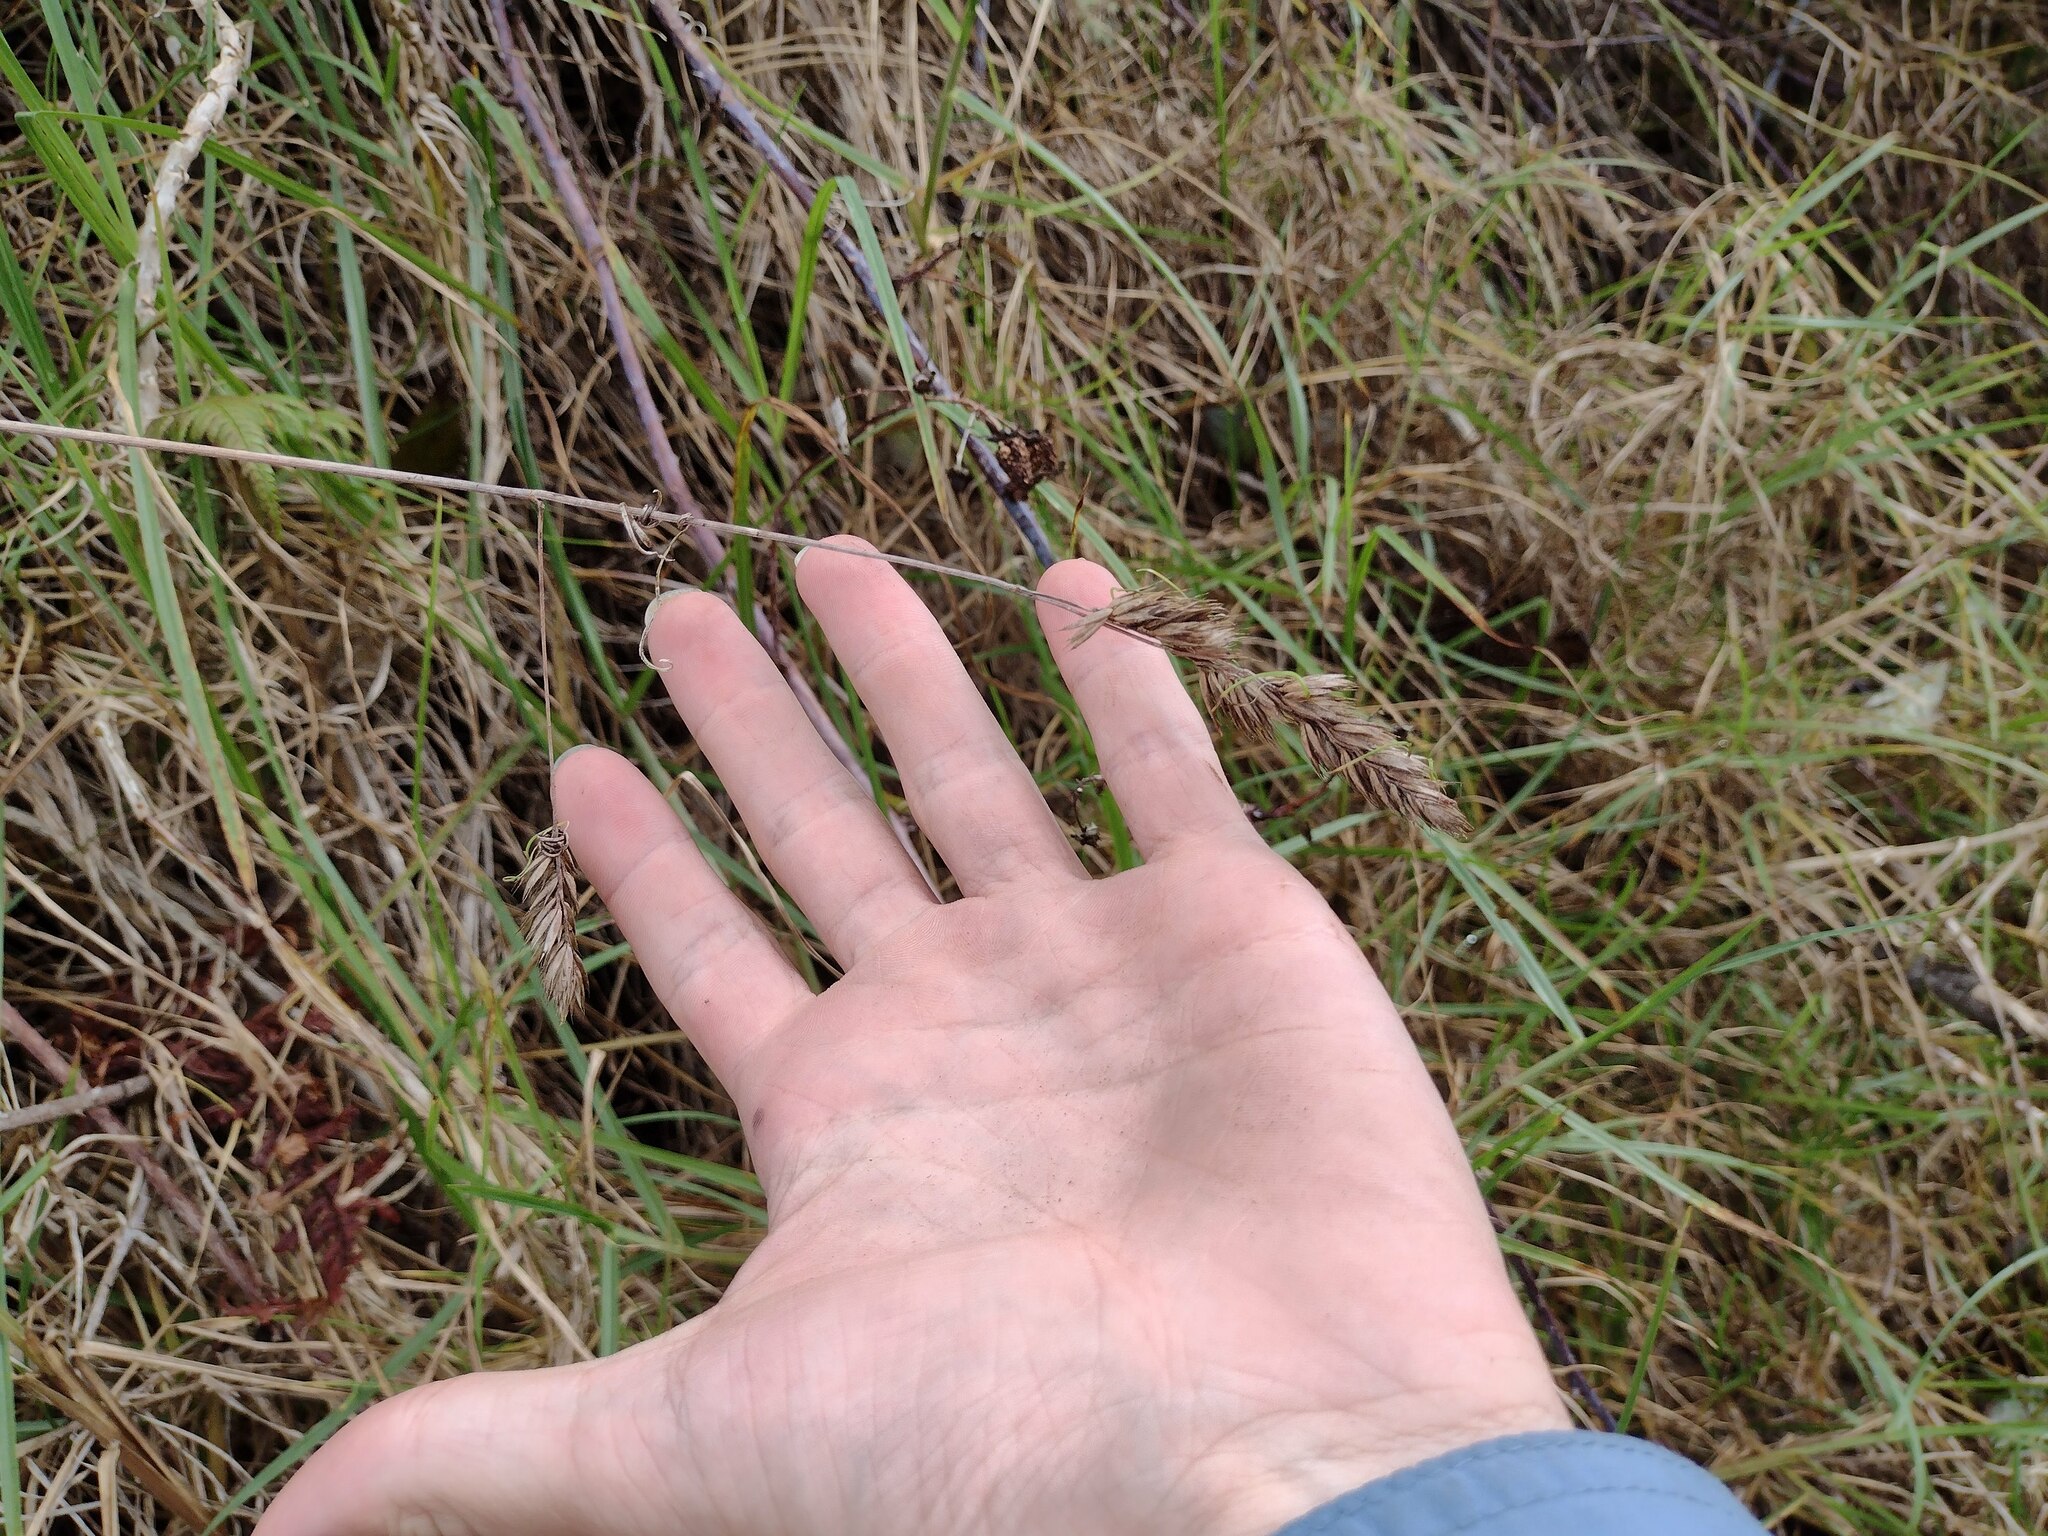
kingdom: Plantae
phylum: Tracheophyta
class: Liliopsida
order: Poales
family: Poaceae
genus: Dactylis
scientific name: Dactylis glomerata
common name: Orchardgrass
